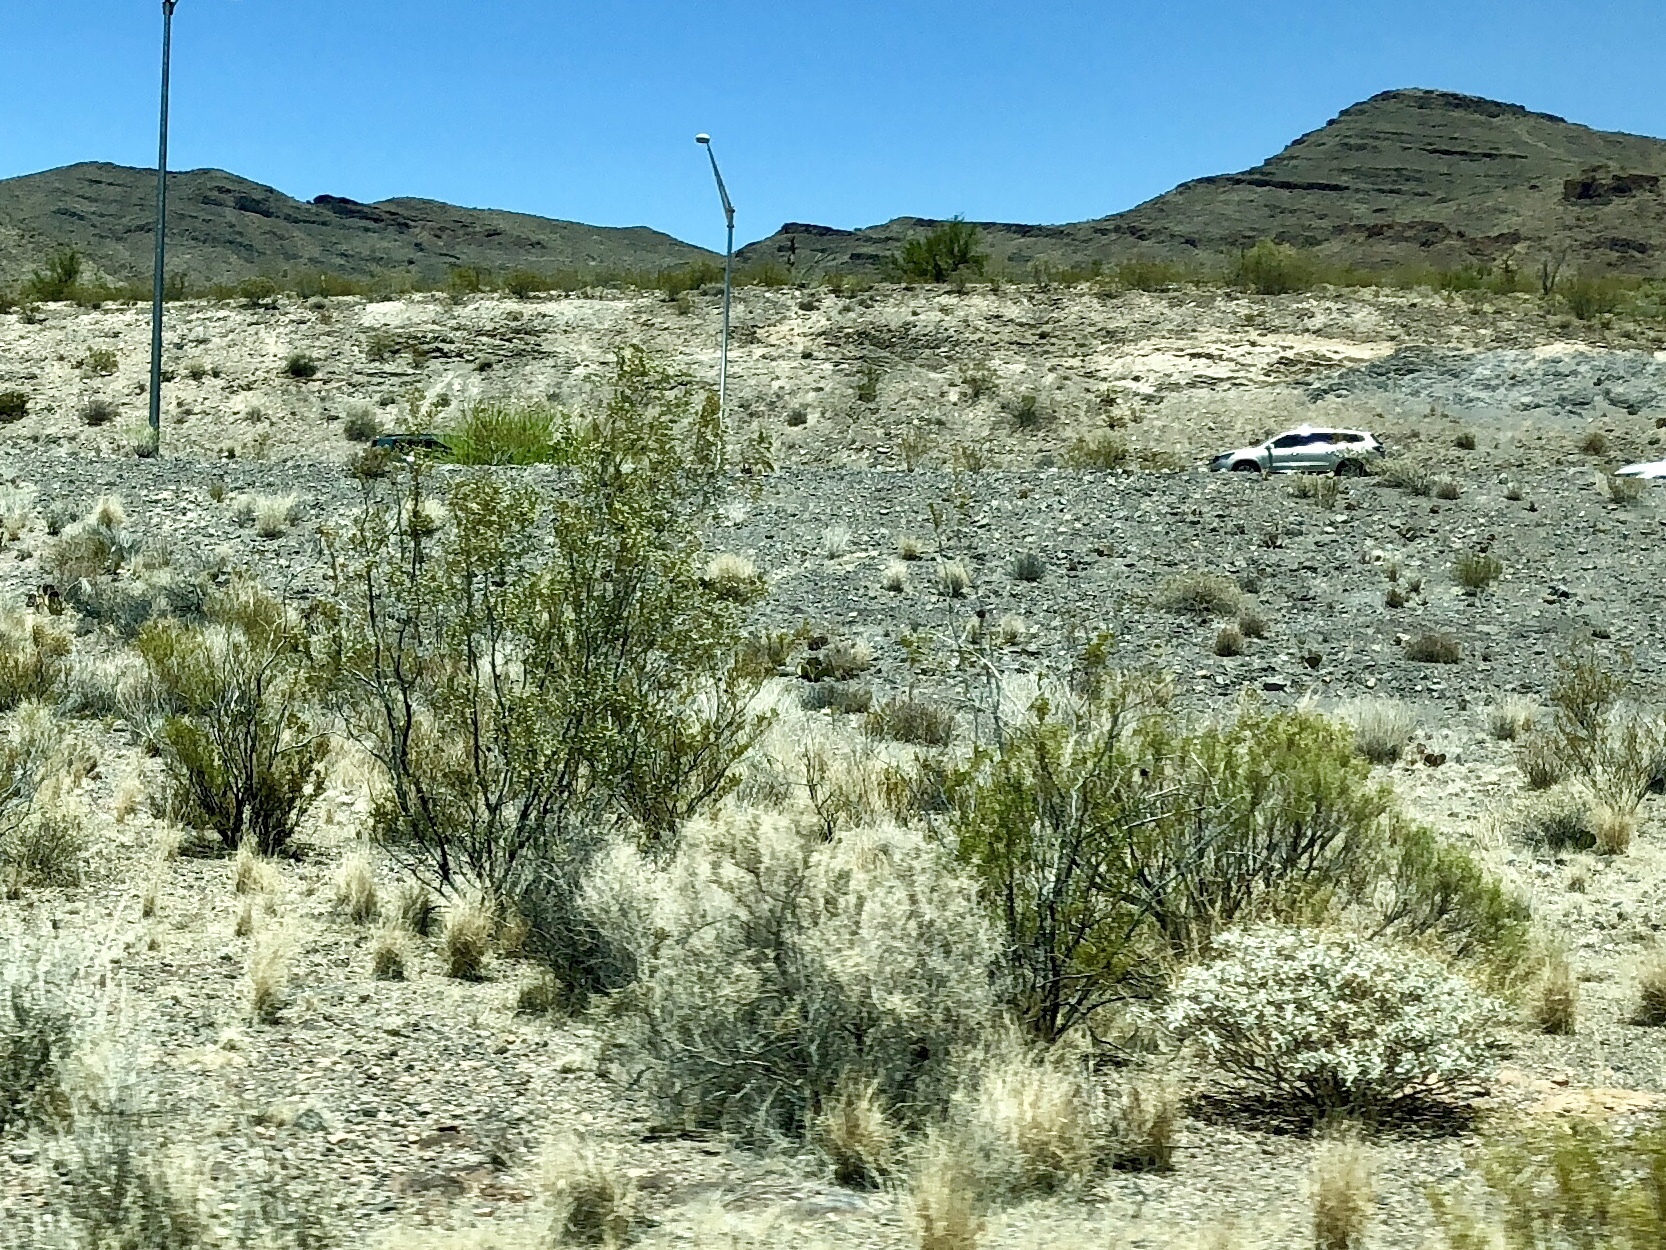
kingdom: Plantae
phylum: Tracheophyta
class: Magnoliopsida
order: Zygophyllales
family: Zygophyllaceae
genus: Larrea
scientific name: Larrea tridentata
